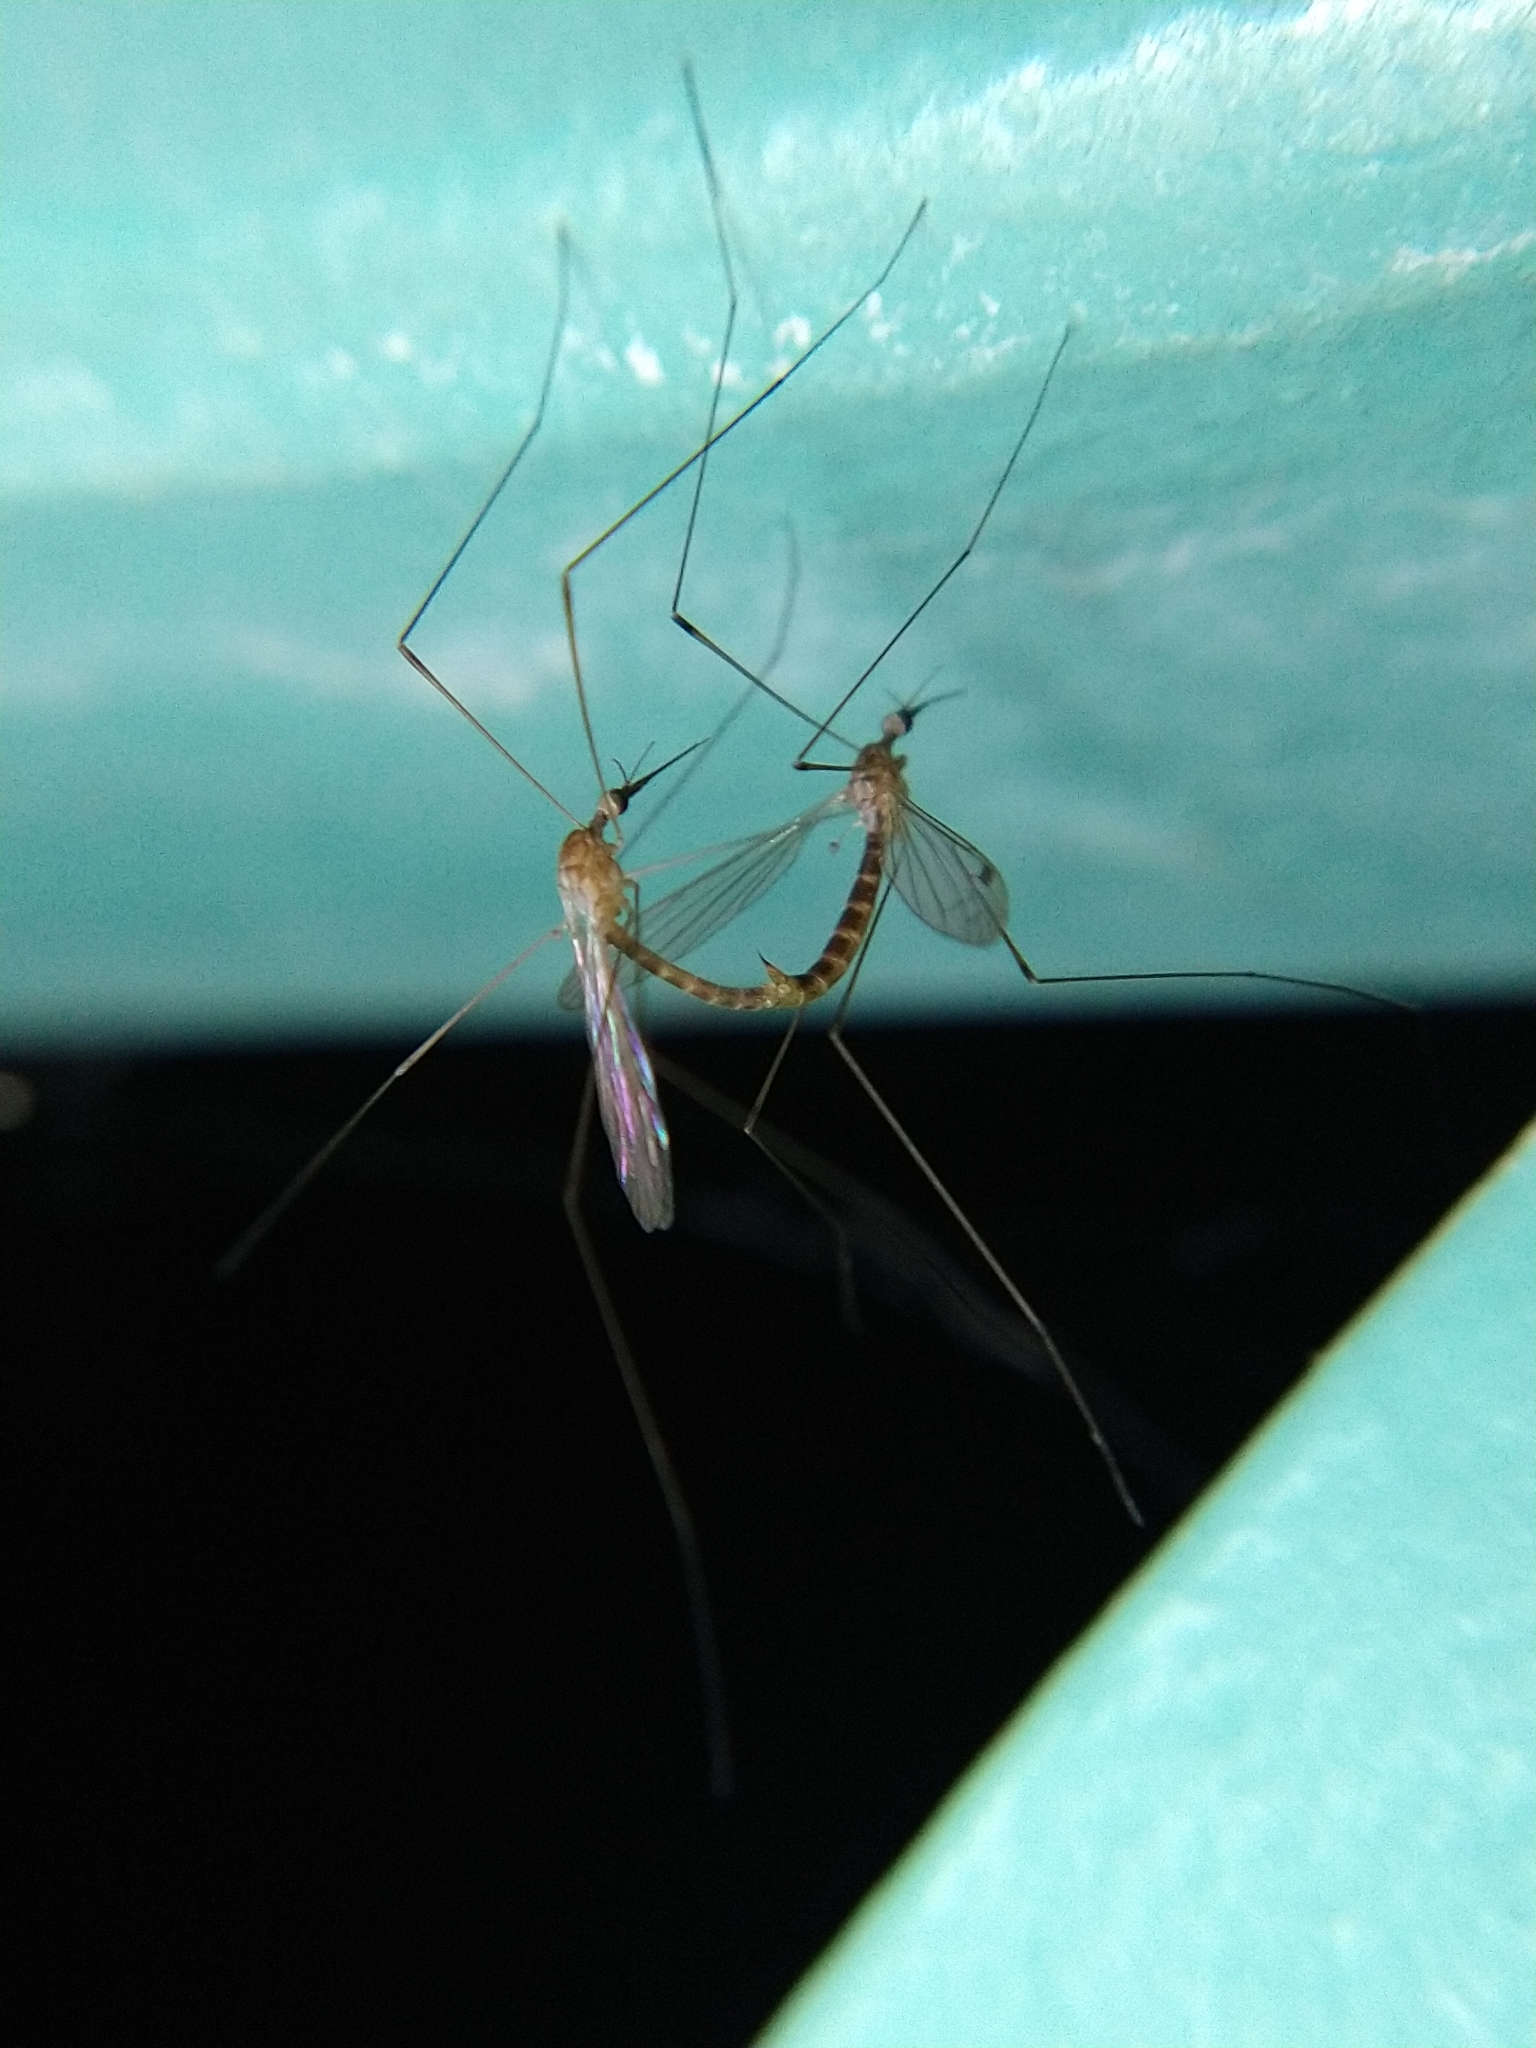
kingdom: Animalia
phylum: Arthropoda
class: Insecta
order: Diptera
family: Limoniidae
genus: Geranomyia
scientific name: Geranomyia
